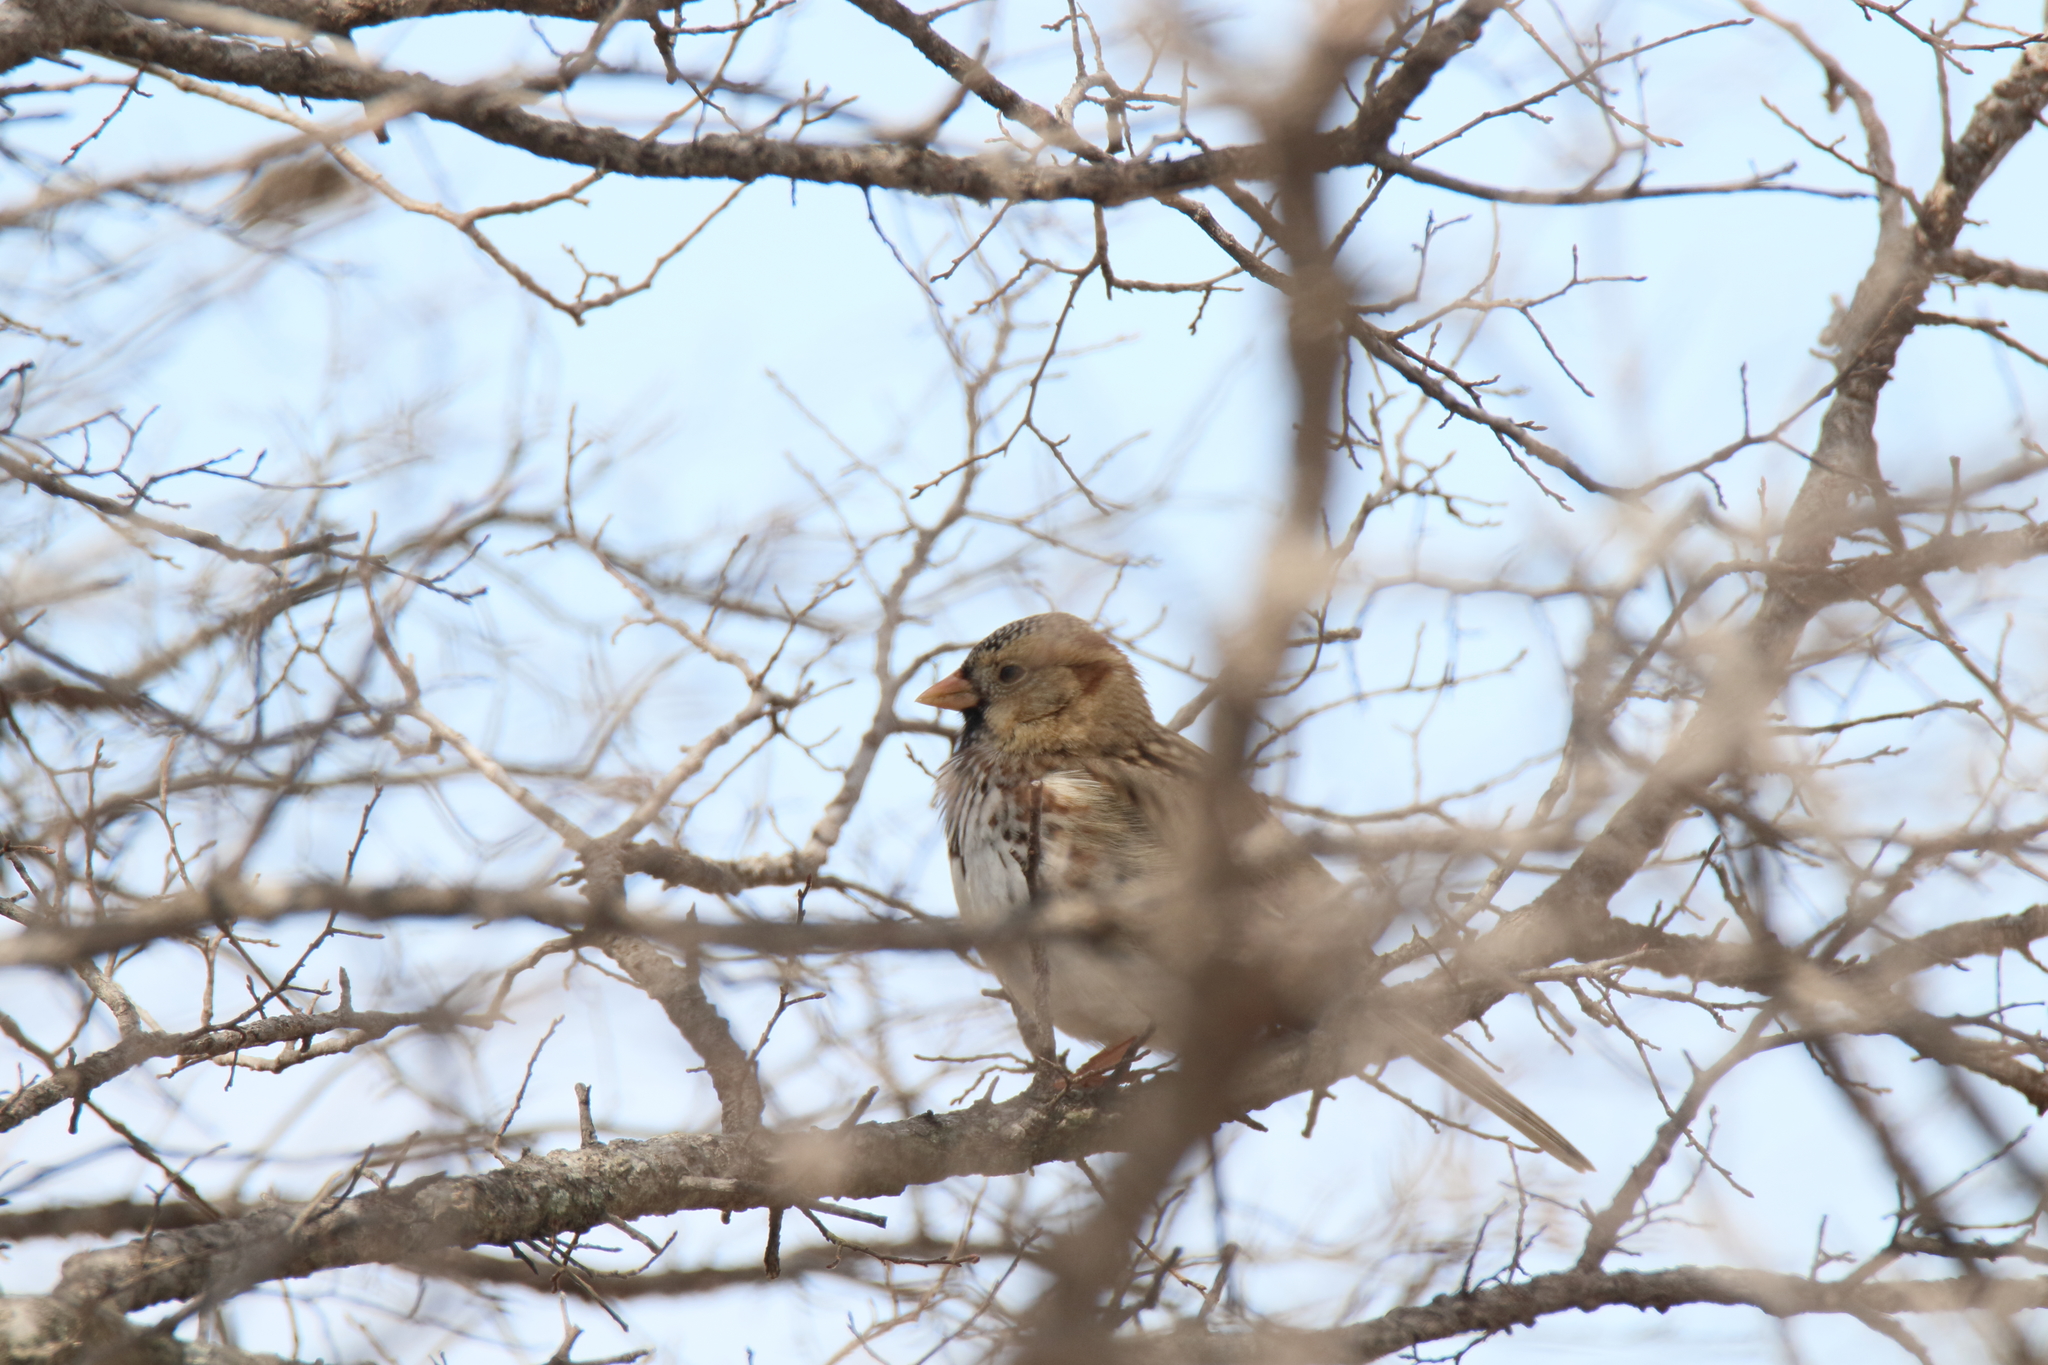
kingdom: Animalia
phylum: Chordata
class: Aves
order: Passeriformes
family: Passerellidae
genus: Zonotrichia
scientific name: Zonotrichia querula
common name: Harris's sparrow
